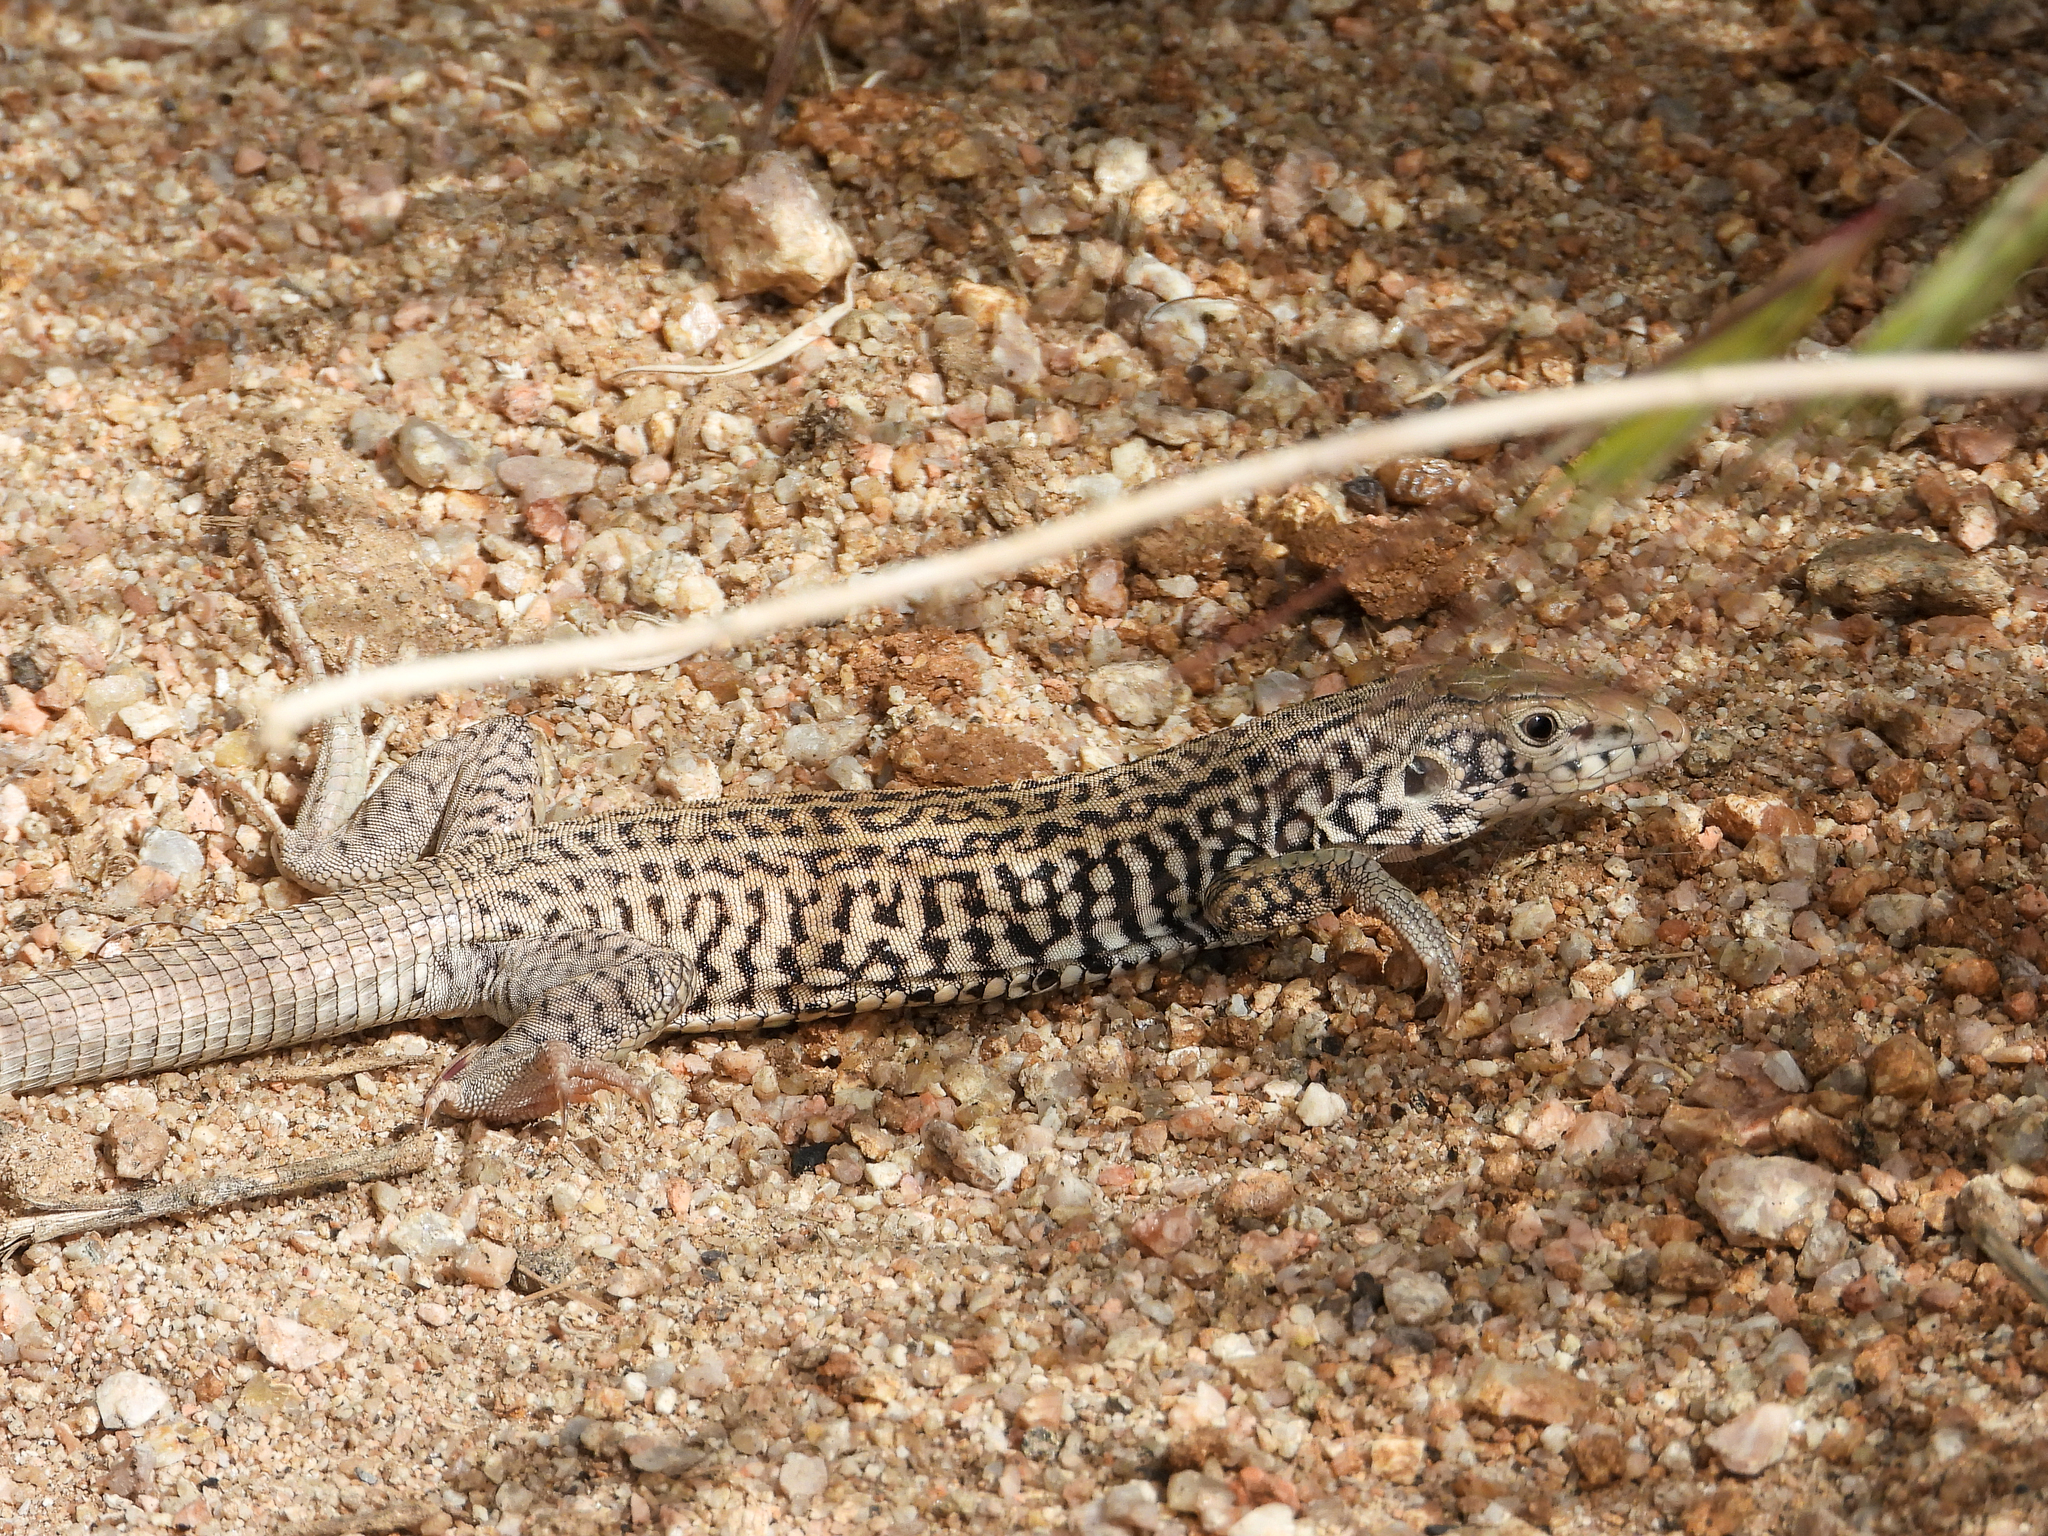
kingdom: Animalia
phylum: Chordata
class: Squamata
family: Teiidae
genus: Aspidoscelis
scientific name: Aspidoscelis tigris
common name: Tiger whiptail
